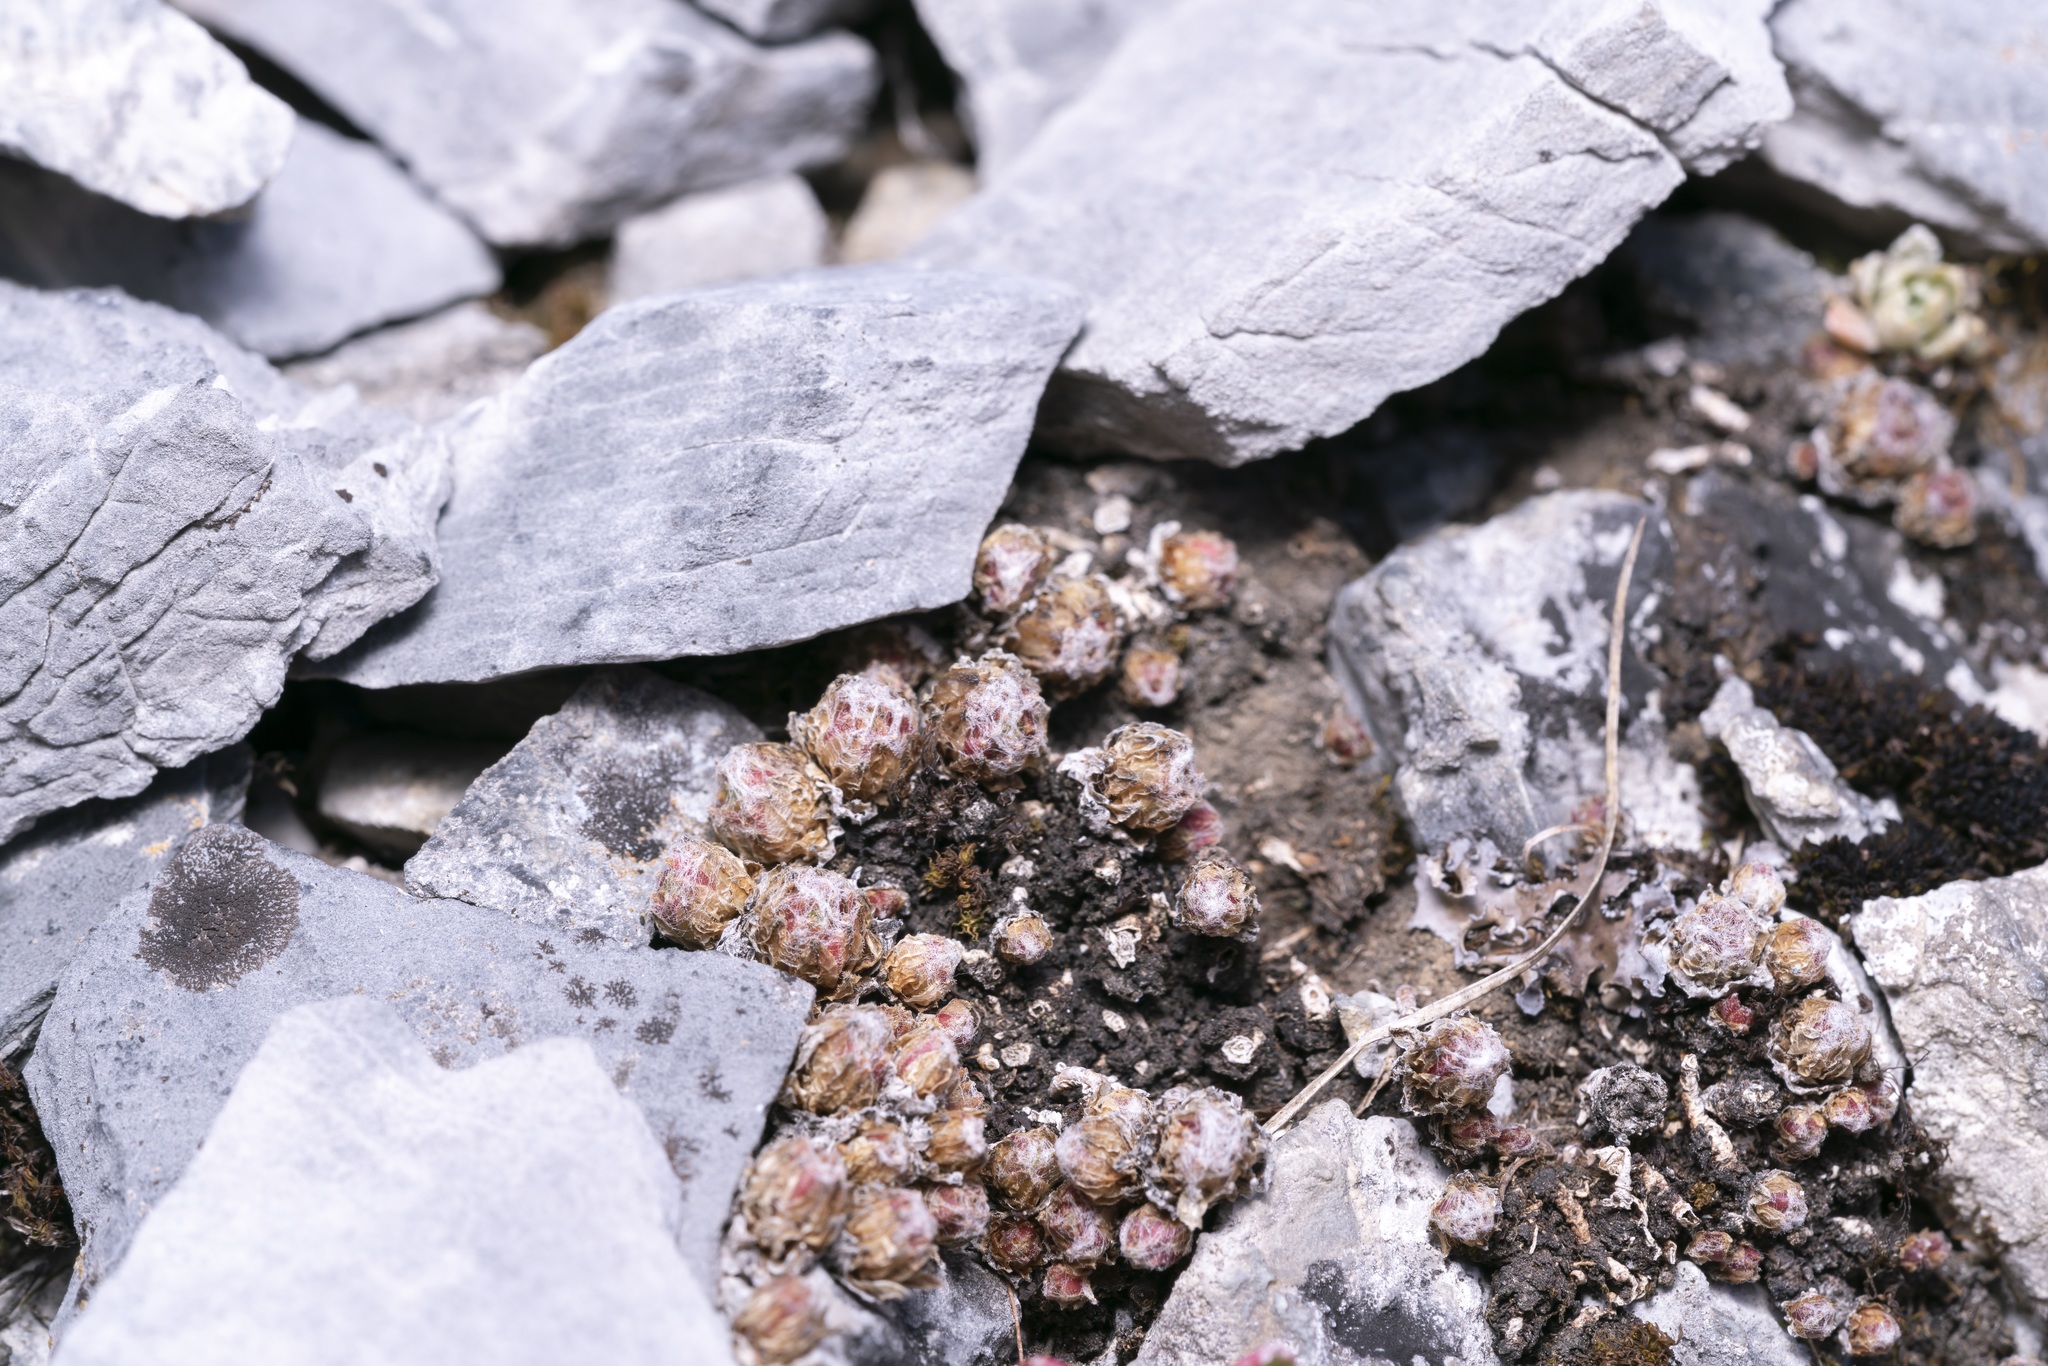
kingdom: Plantae
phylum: Tracheophyta
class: Magnoliopsida
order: Saxifragales
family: Crassulaceae
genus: Sempervivum
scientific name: Sempervivum arachnoideum
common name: Cobweb house-leek
